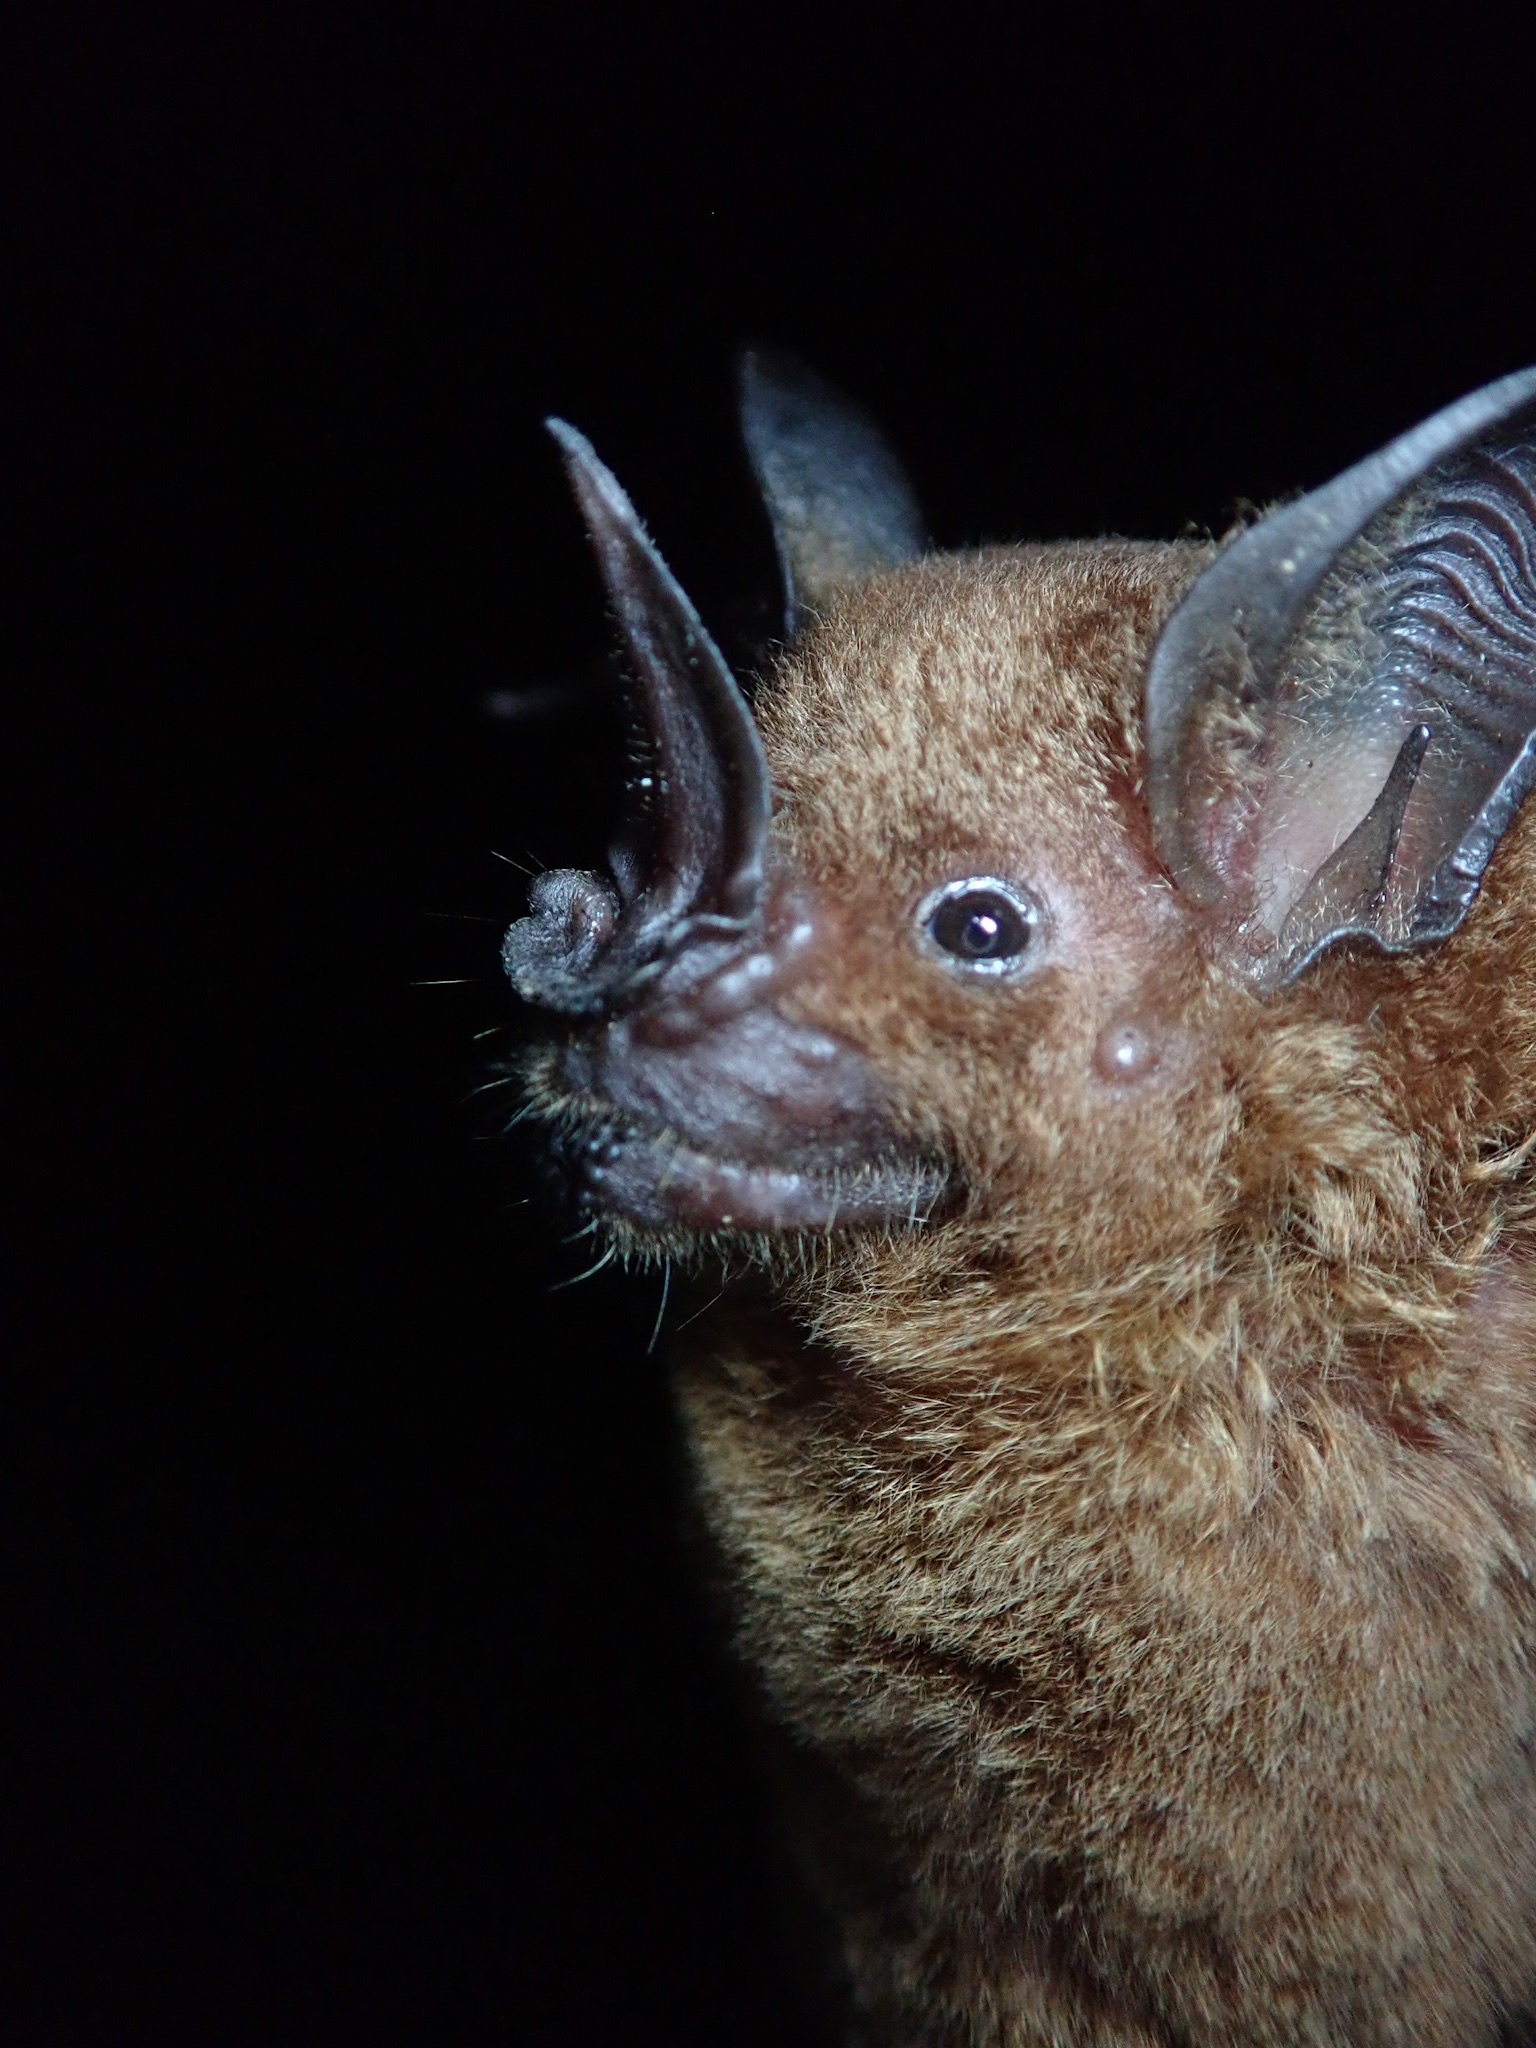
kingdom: Animalia
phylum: Chordata
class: Mammalia
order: Chiroptera
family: Phyllostomidae
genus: Phyllostomus
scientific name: Phyllostomus elongatus
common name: Lesser spear-nosed bat
